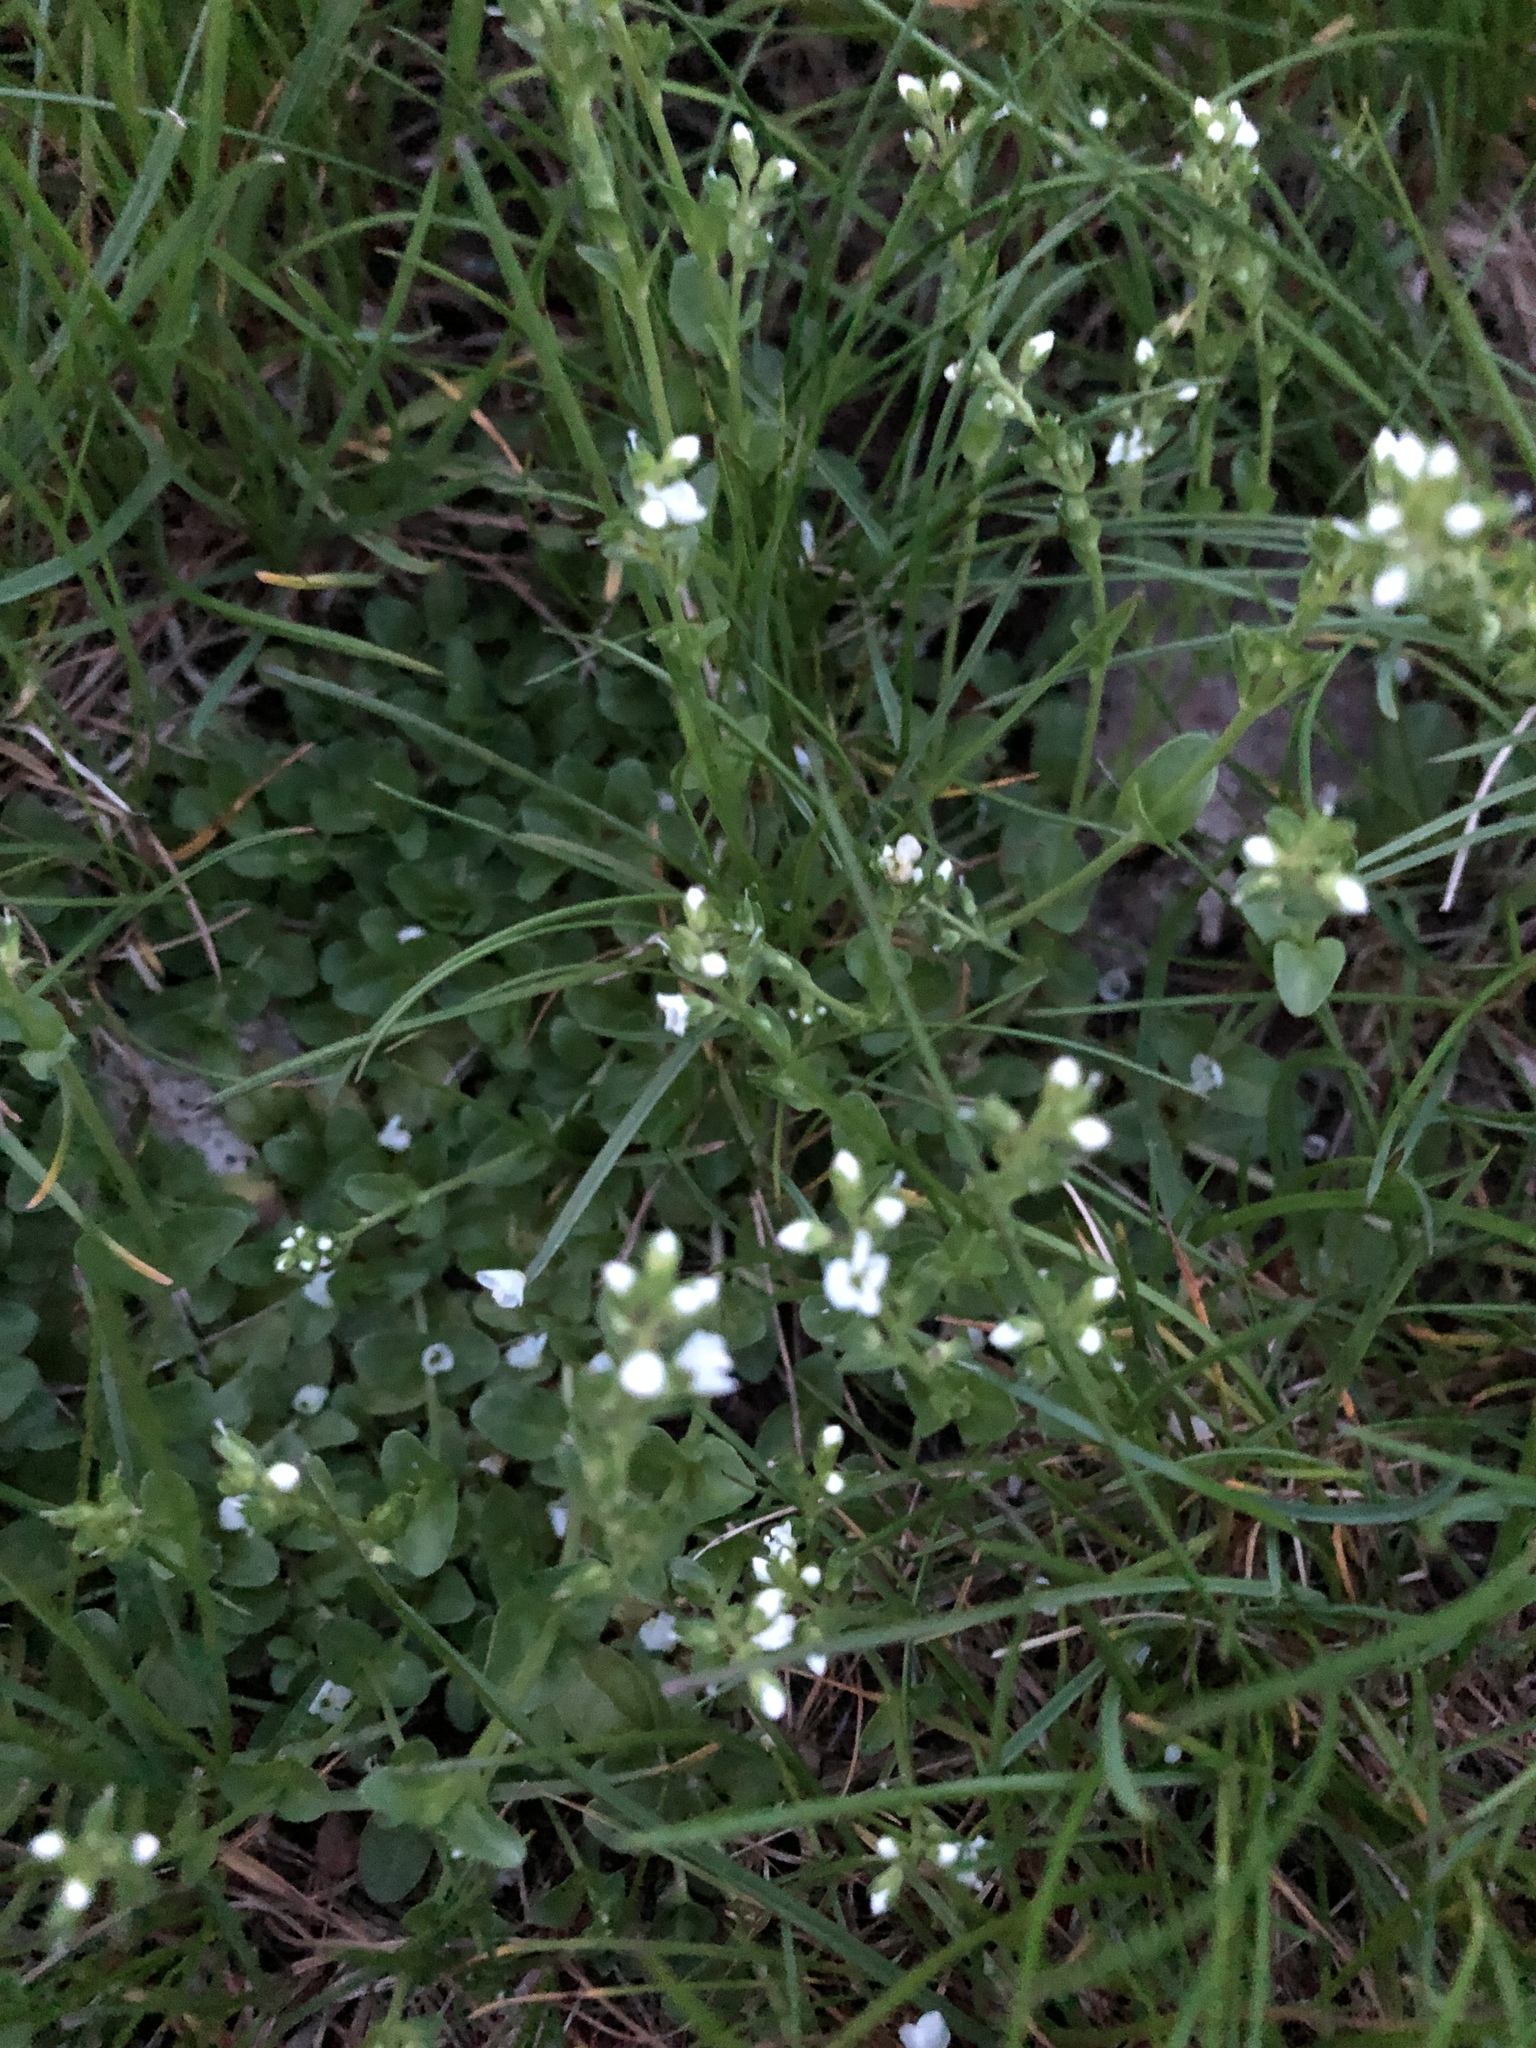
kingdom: Plantae
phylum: Tracheophyta
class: Magnoliopsida
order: Lamiales
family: Plantaginaceae
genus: Veronica
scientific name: Veronica serpyllifolia
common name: Thyme-leaved speedwell
